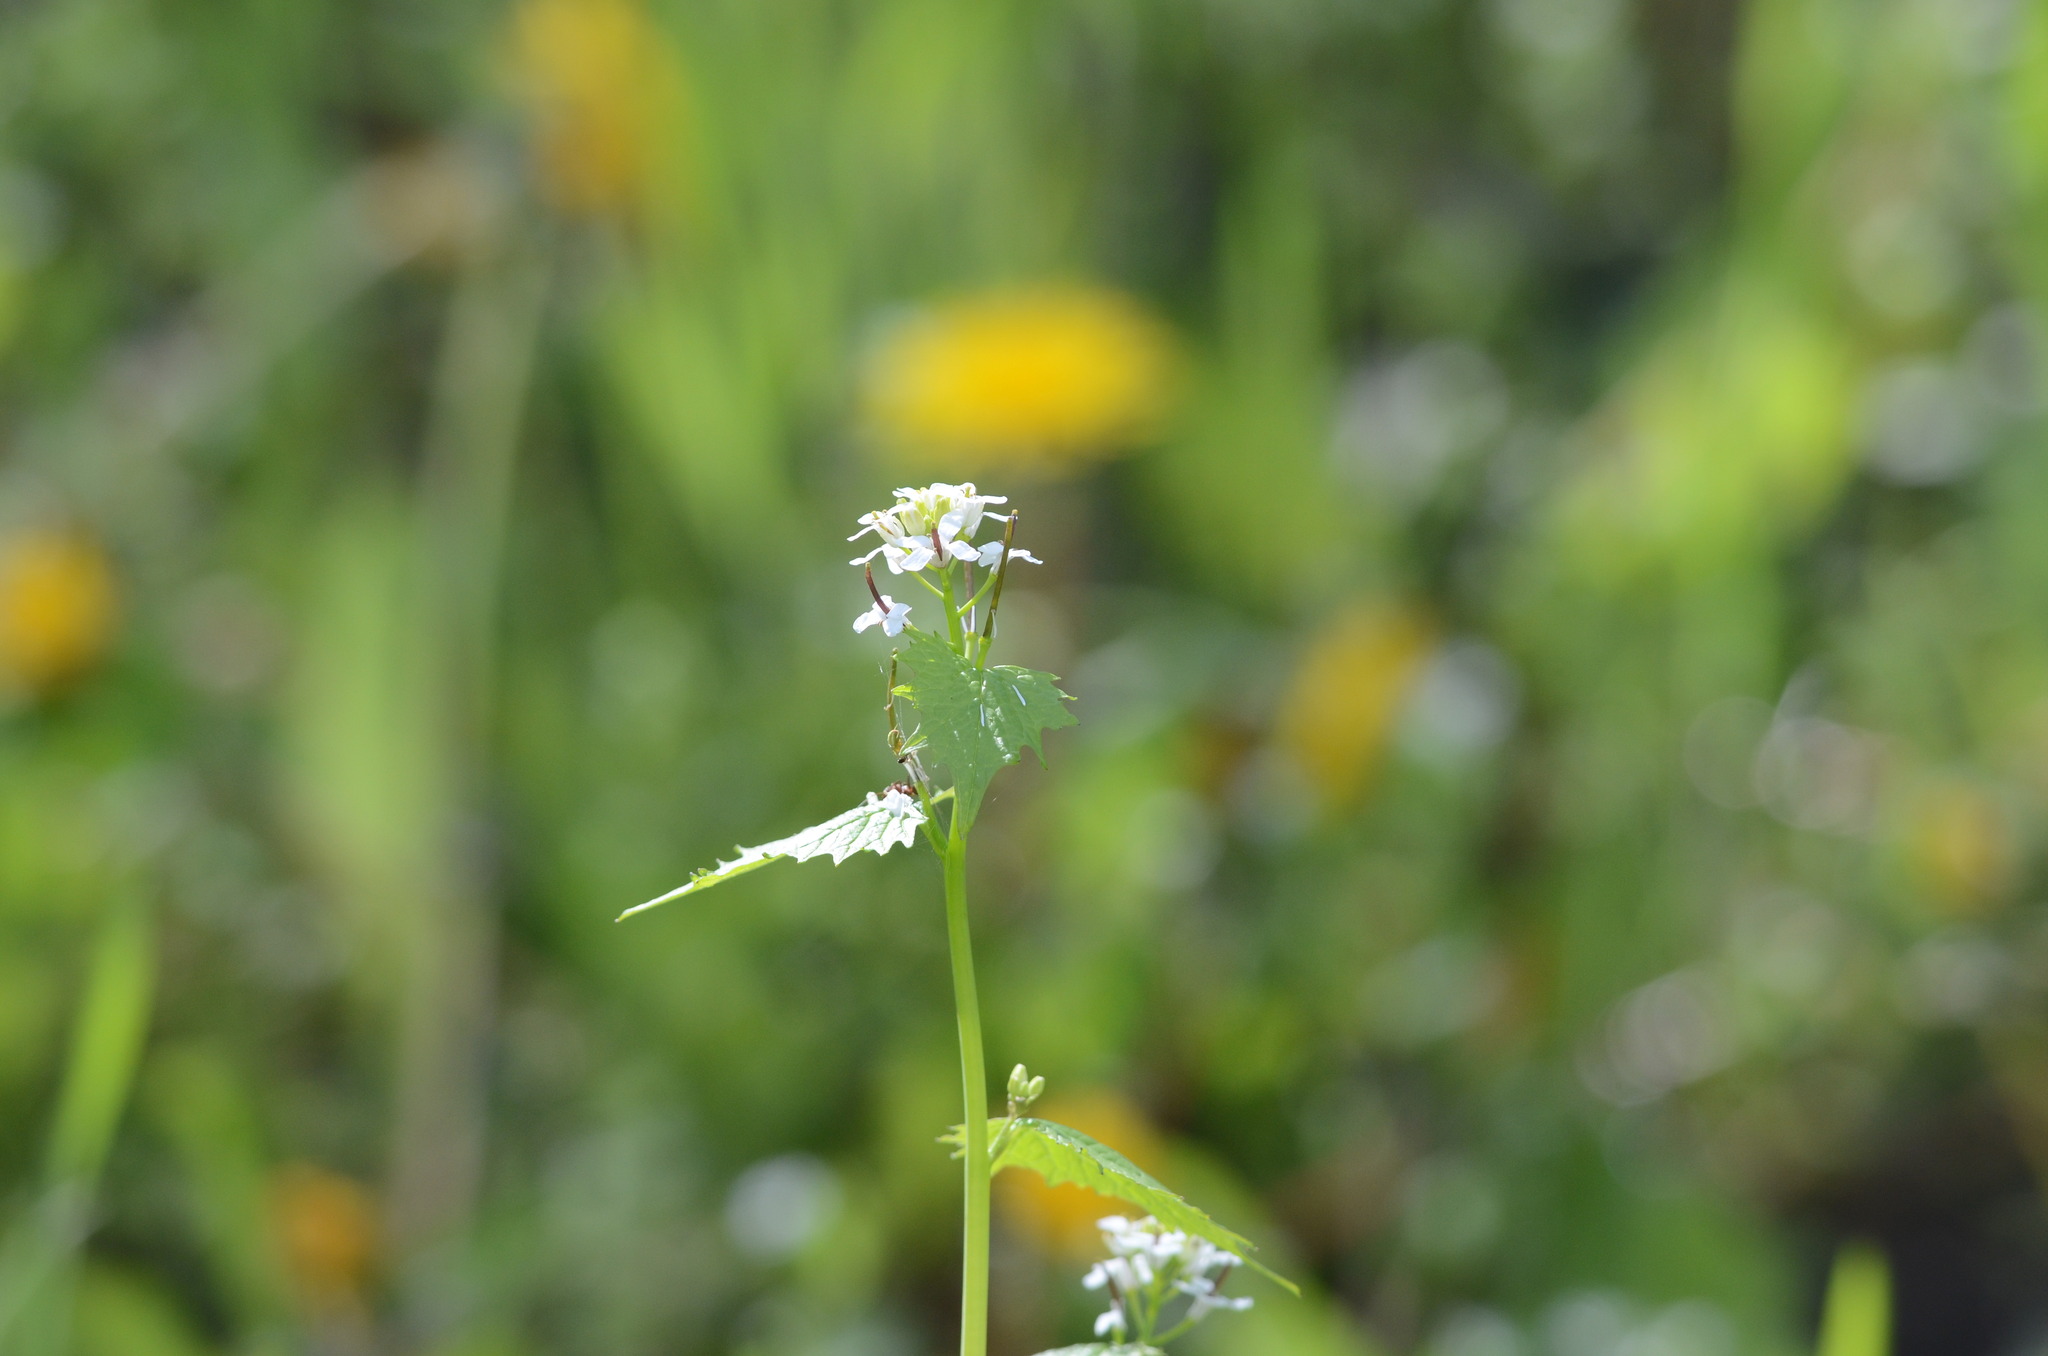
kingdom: Plantae
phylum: Tracheophyta
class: Magnoliopsida
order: Brassicales
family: Brassicaceae
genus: Alliaria
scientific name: Alliaria petiolata
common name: Garlic mustard
